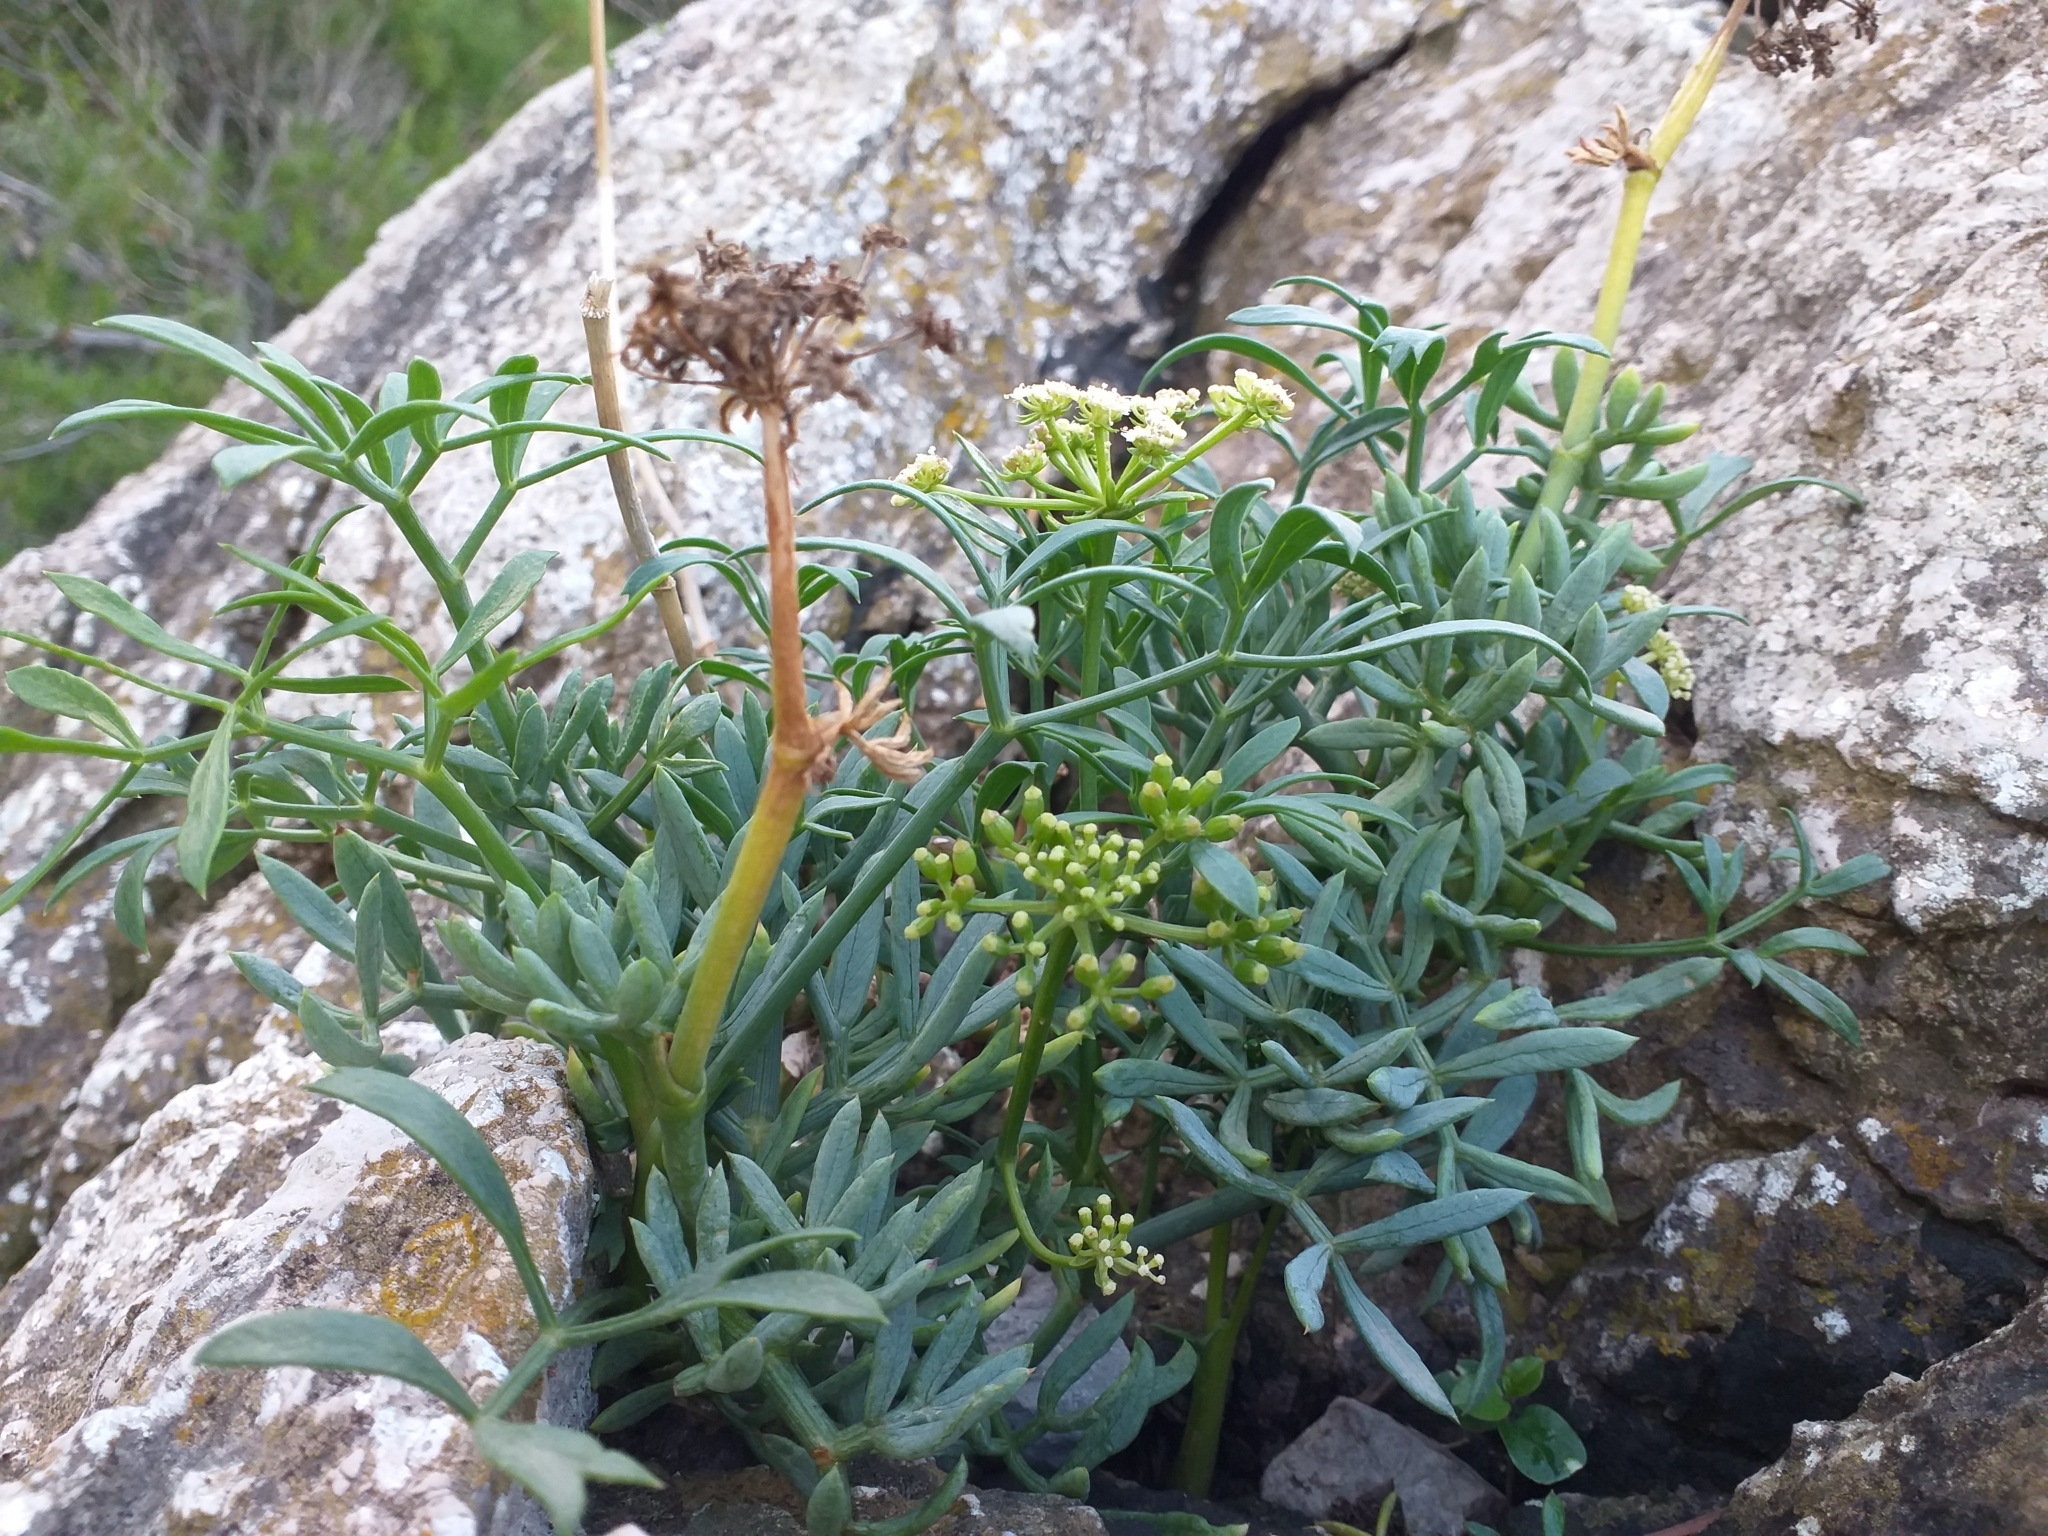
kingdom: Plantae
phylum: Tracheophyta
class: Magnoliopsida
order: Apiales
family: Apiaceae
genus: Crithmum
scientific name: Crithmum maritimum
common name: Rock samphire
